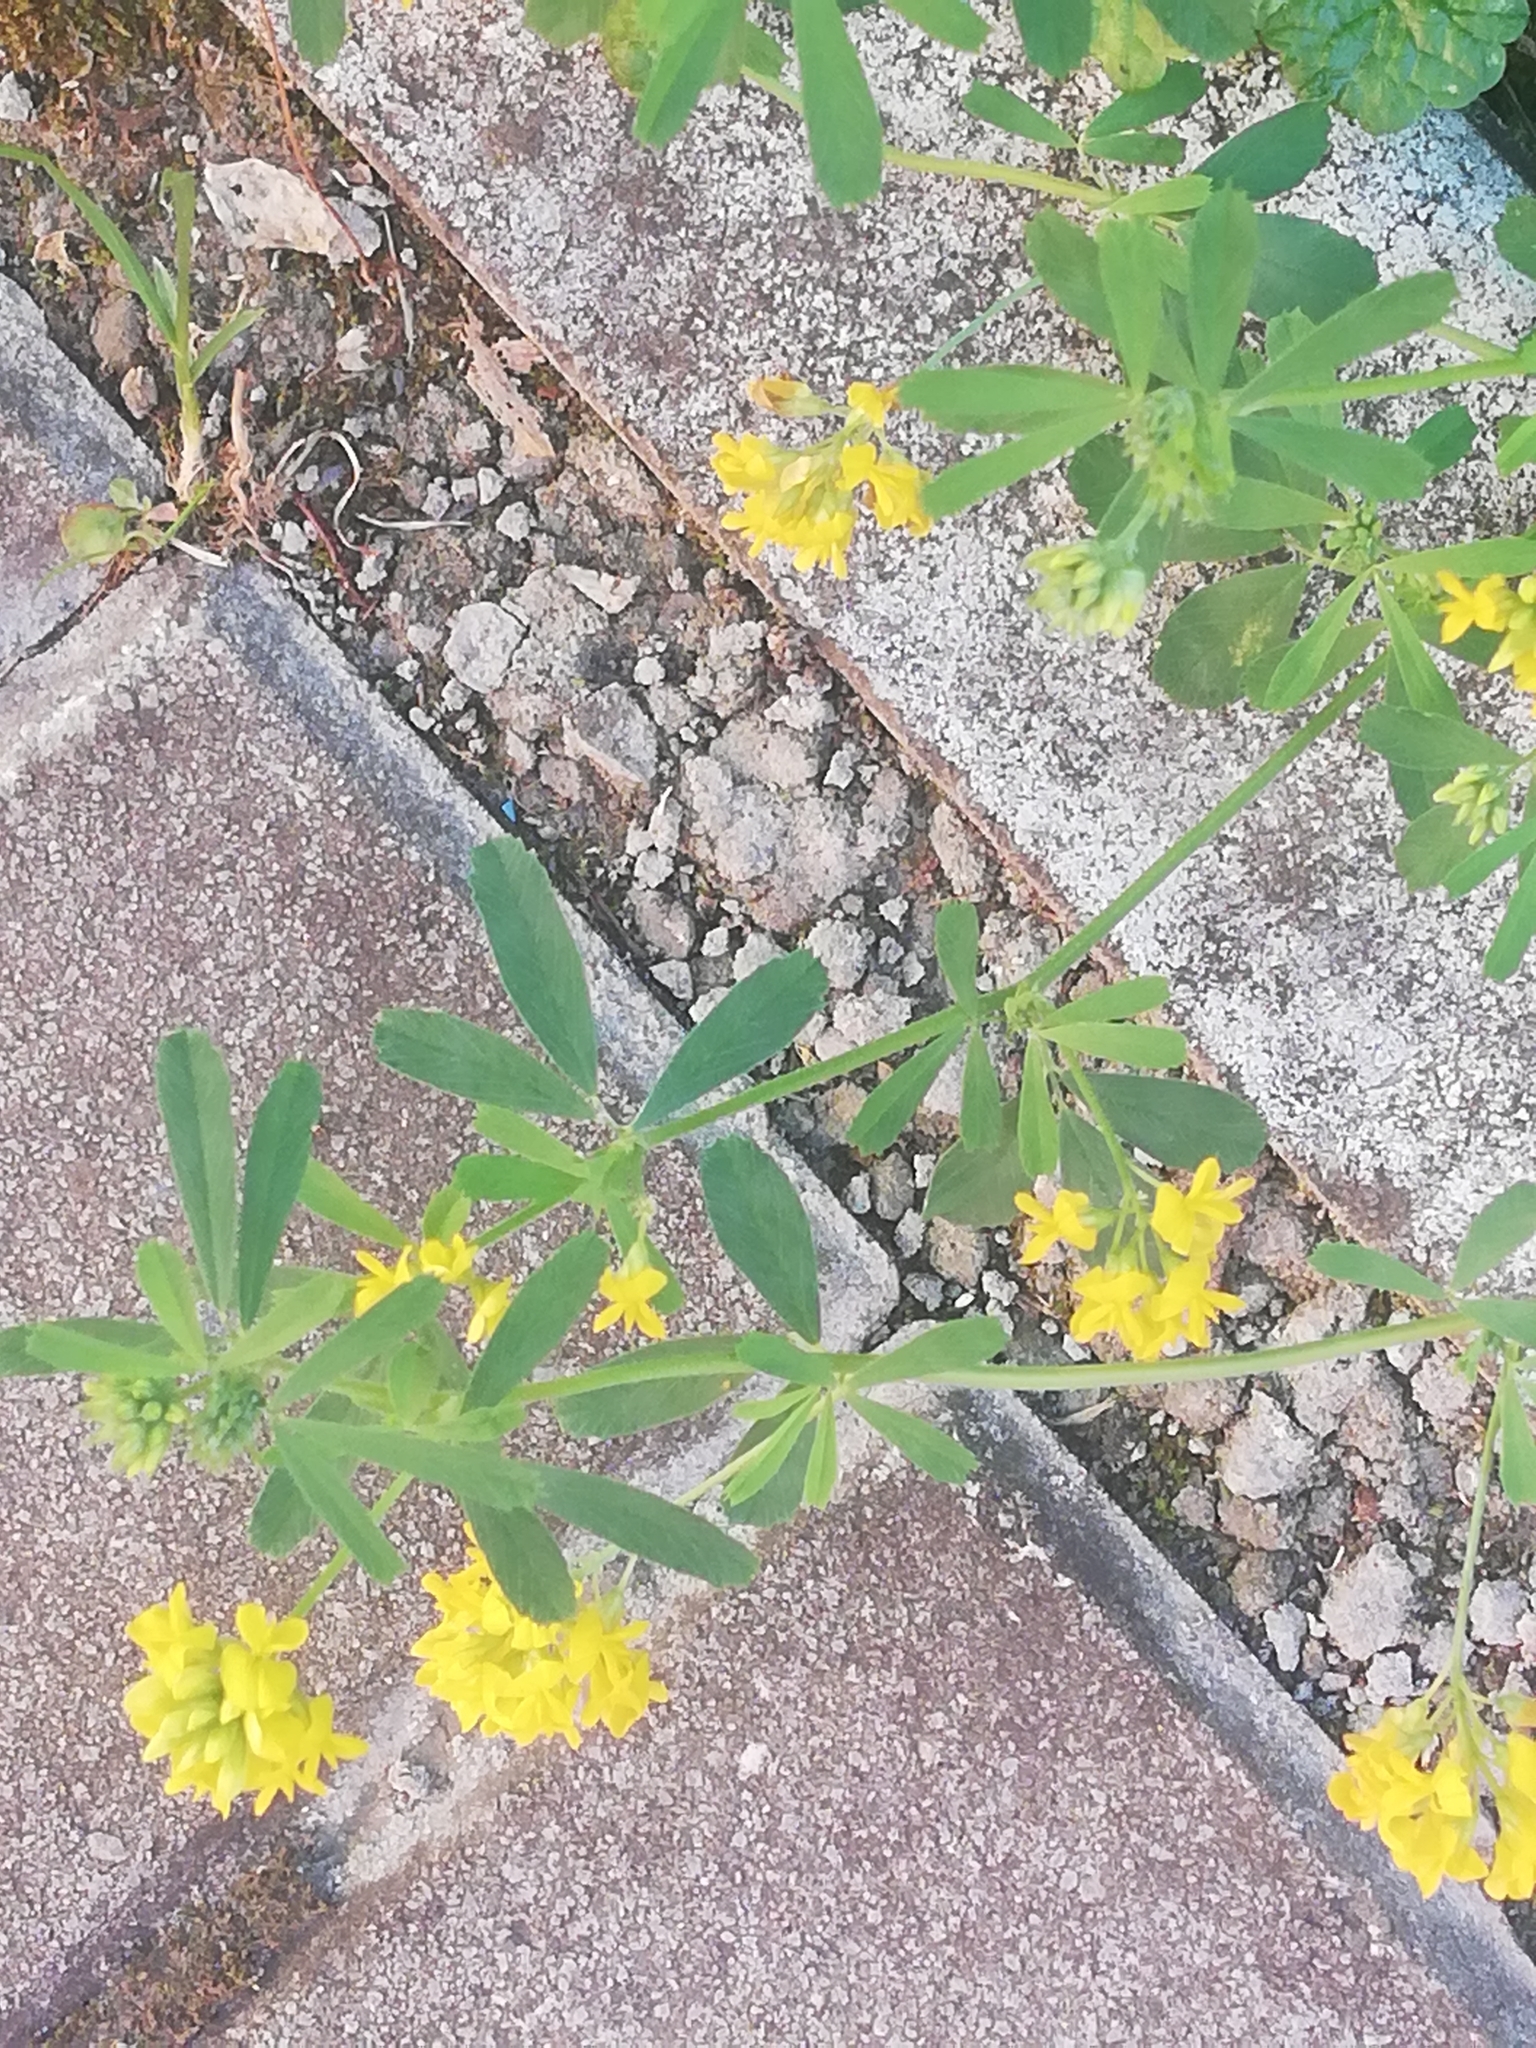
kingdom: Plantae
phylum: Tracheophyta
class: Magnoliopsida
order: Fabales
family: Fabaceae
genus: Medicago
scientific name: Medicago falcata
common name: Sickle medick
